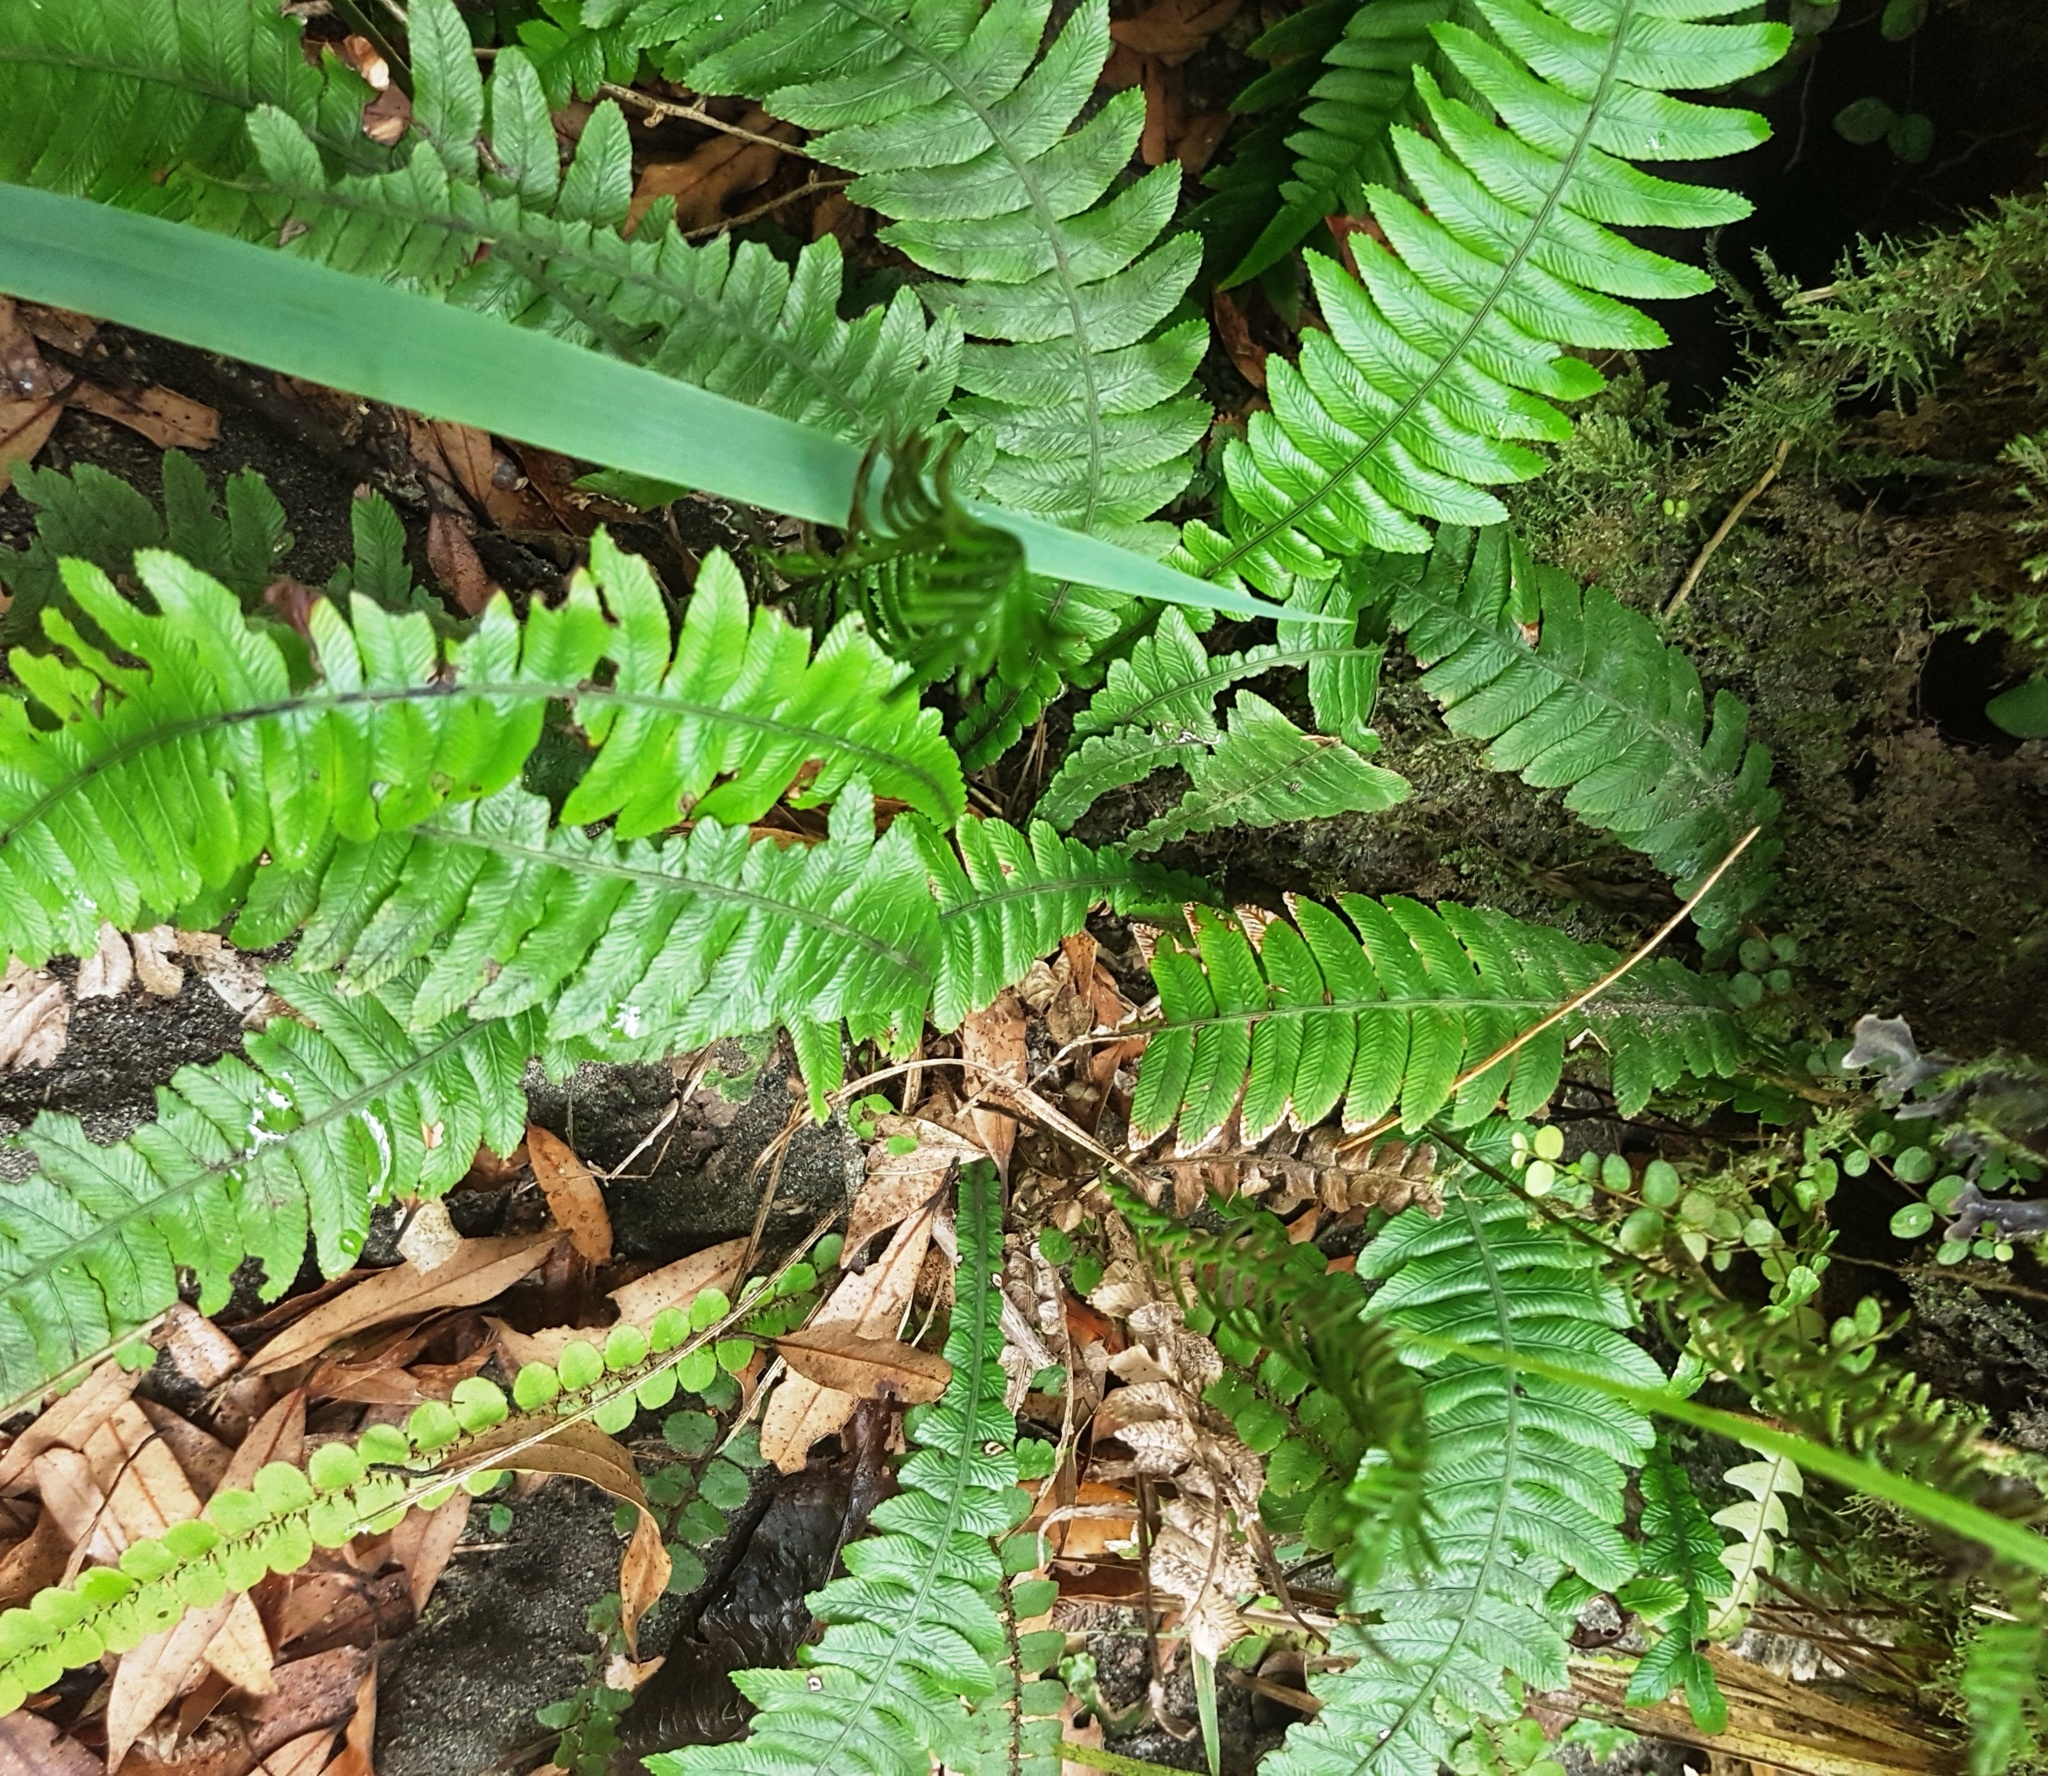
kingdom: Plantae
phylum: Tracheophyta
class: Polypodiopsida
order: Polypodiales
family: Blechnaceae
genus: Austroblechnum
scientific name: Austroblechnum lanceolatum
